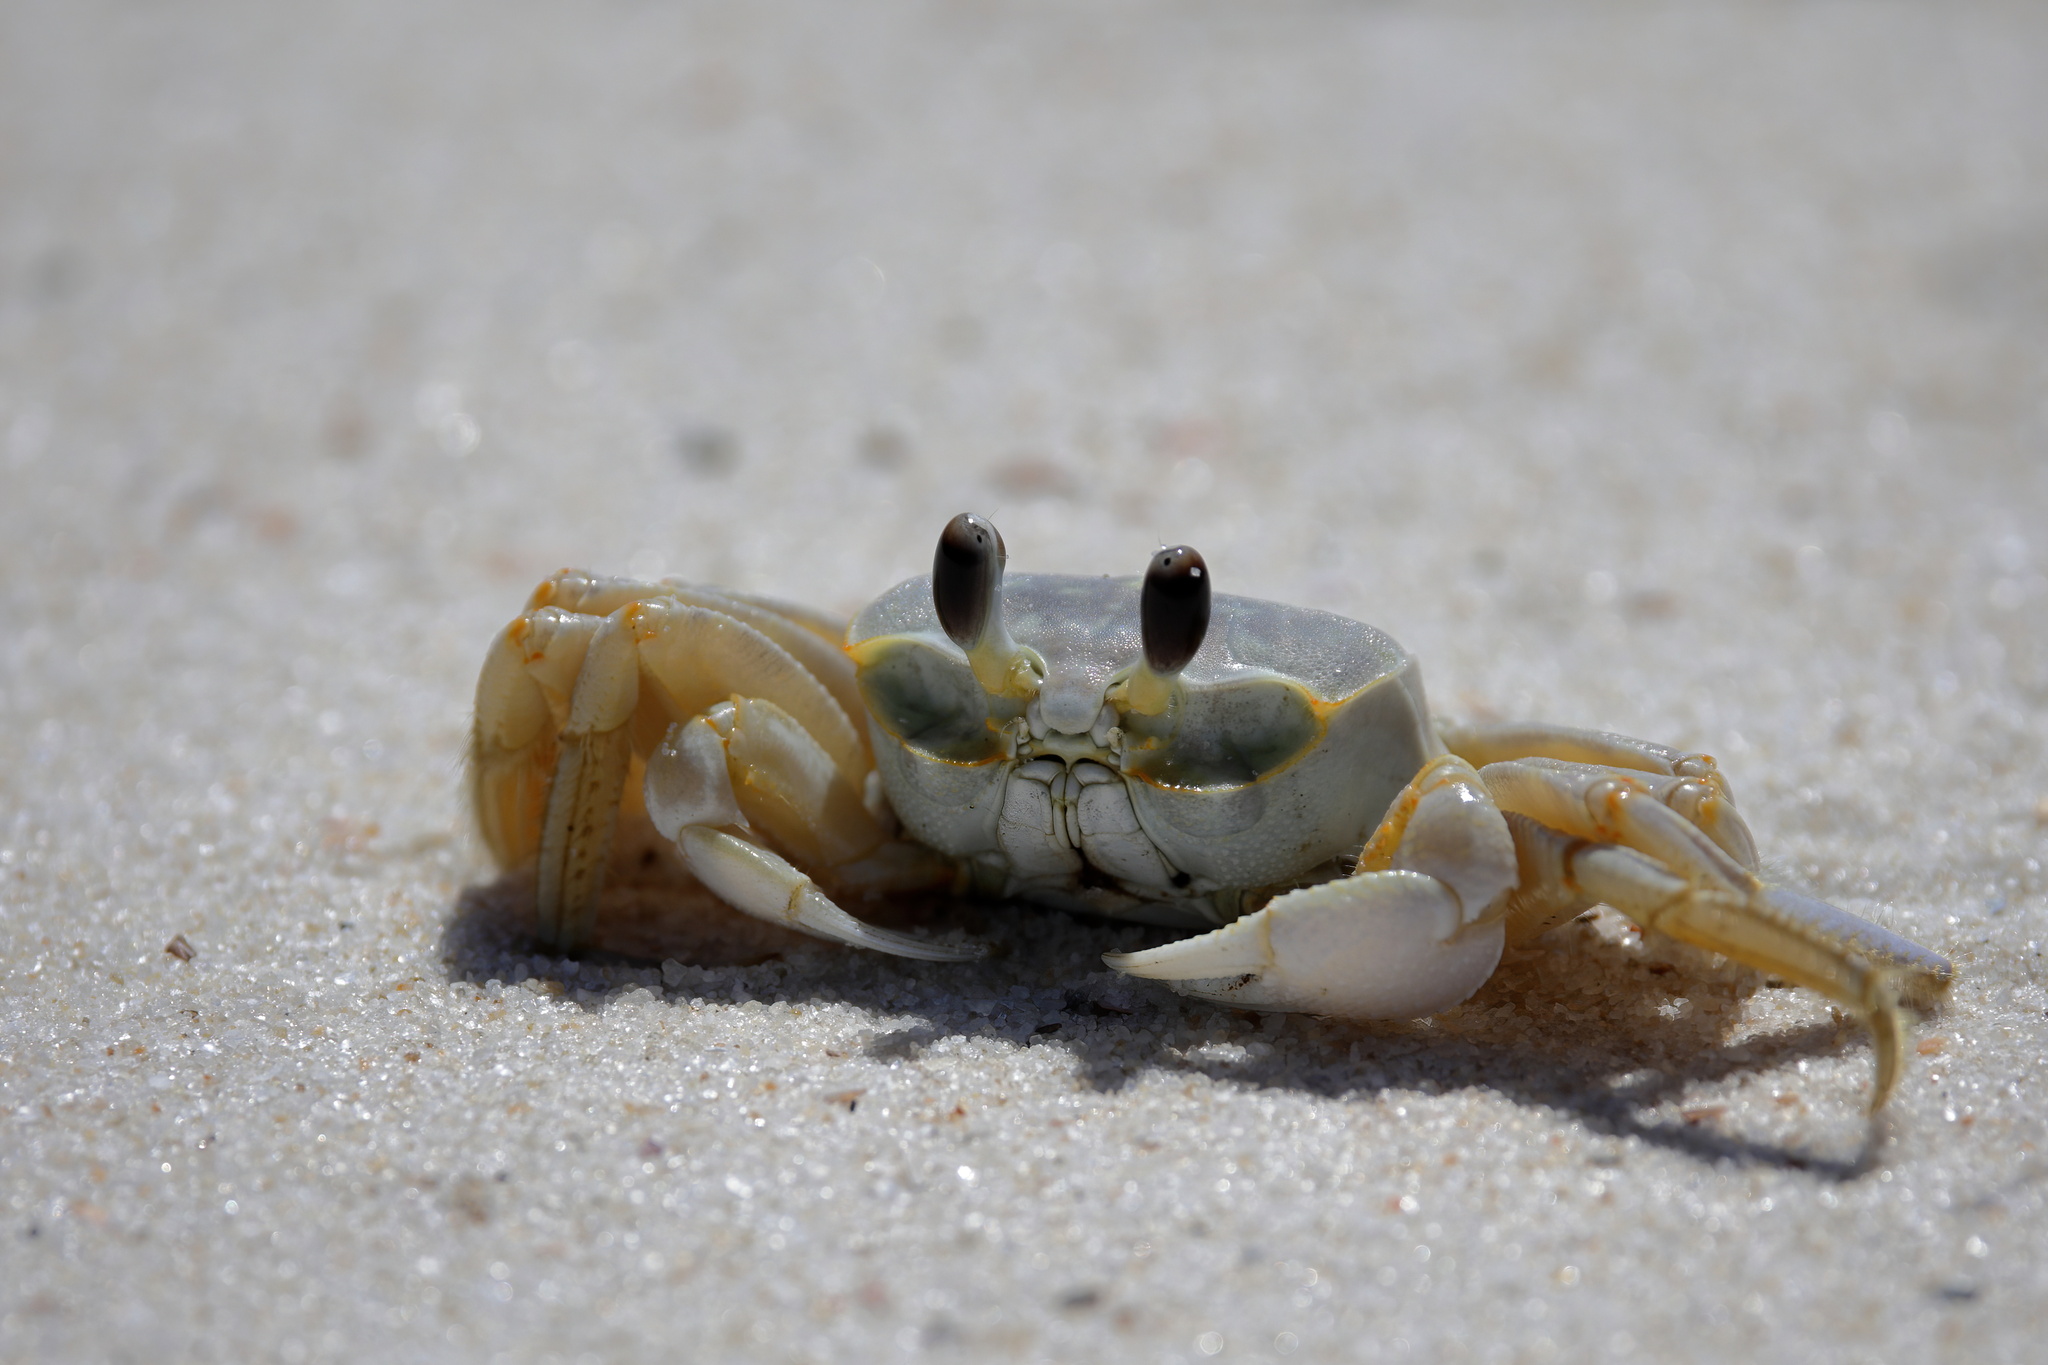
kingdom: Animalia
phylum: Arthropoda
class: Malacostraca
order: Decapoda
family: Ocypodidae
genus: Ocypode
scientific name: Ocypode quadrata
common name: Ghost crab
